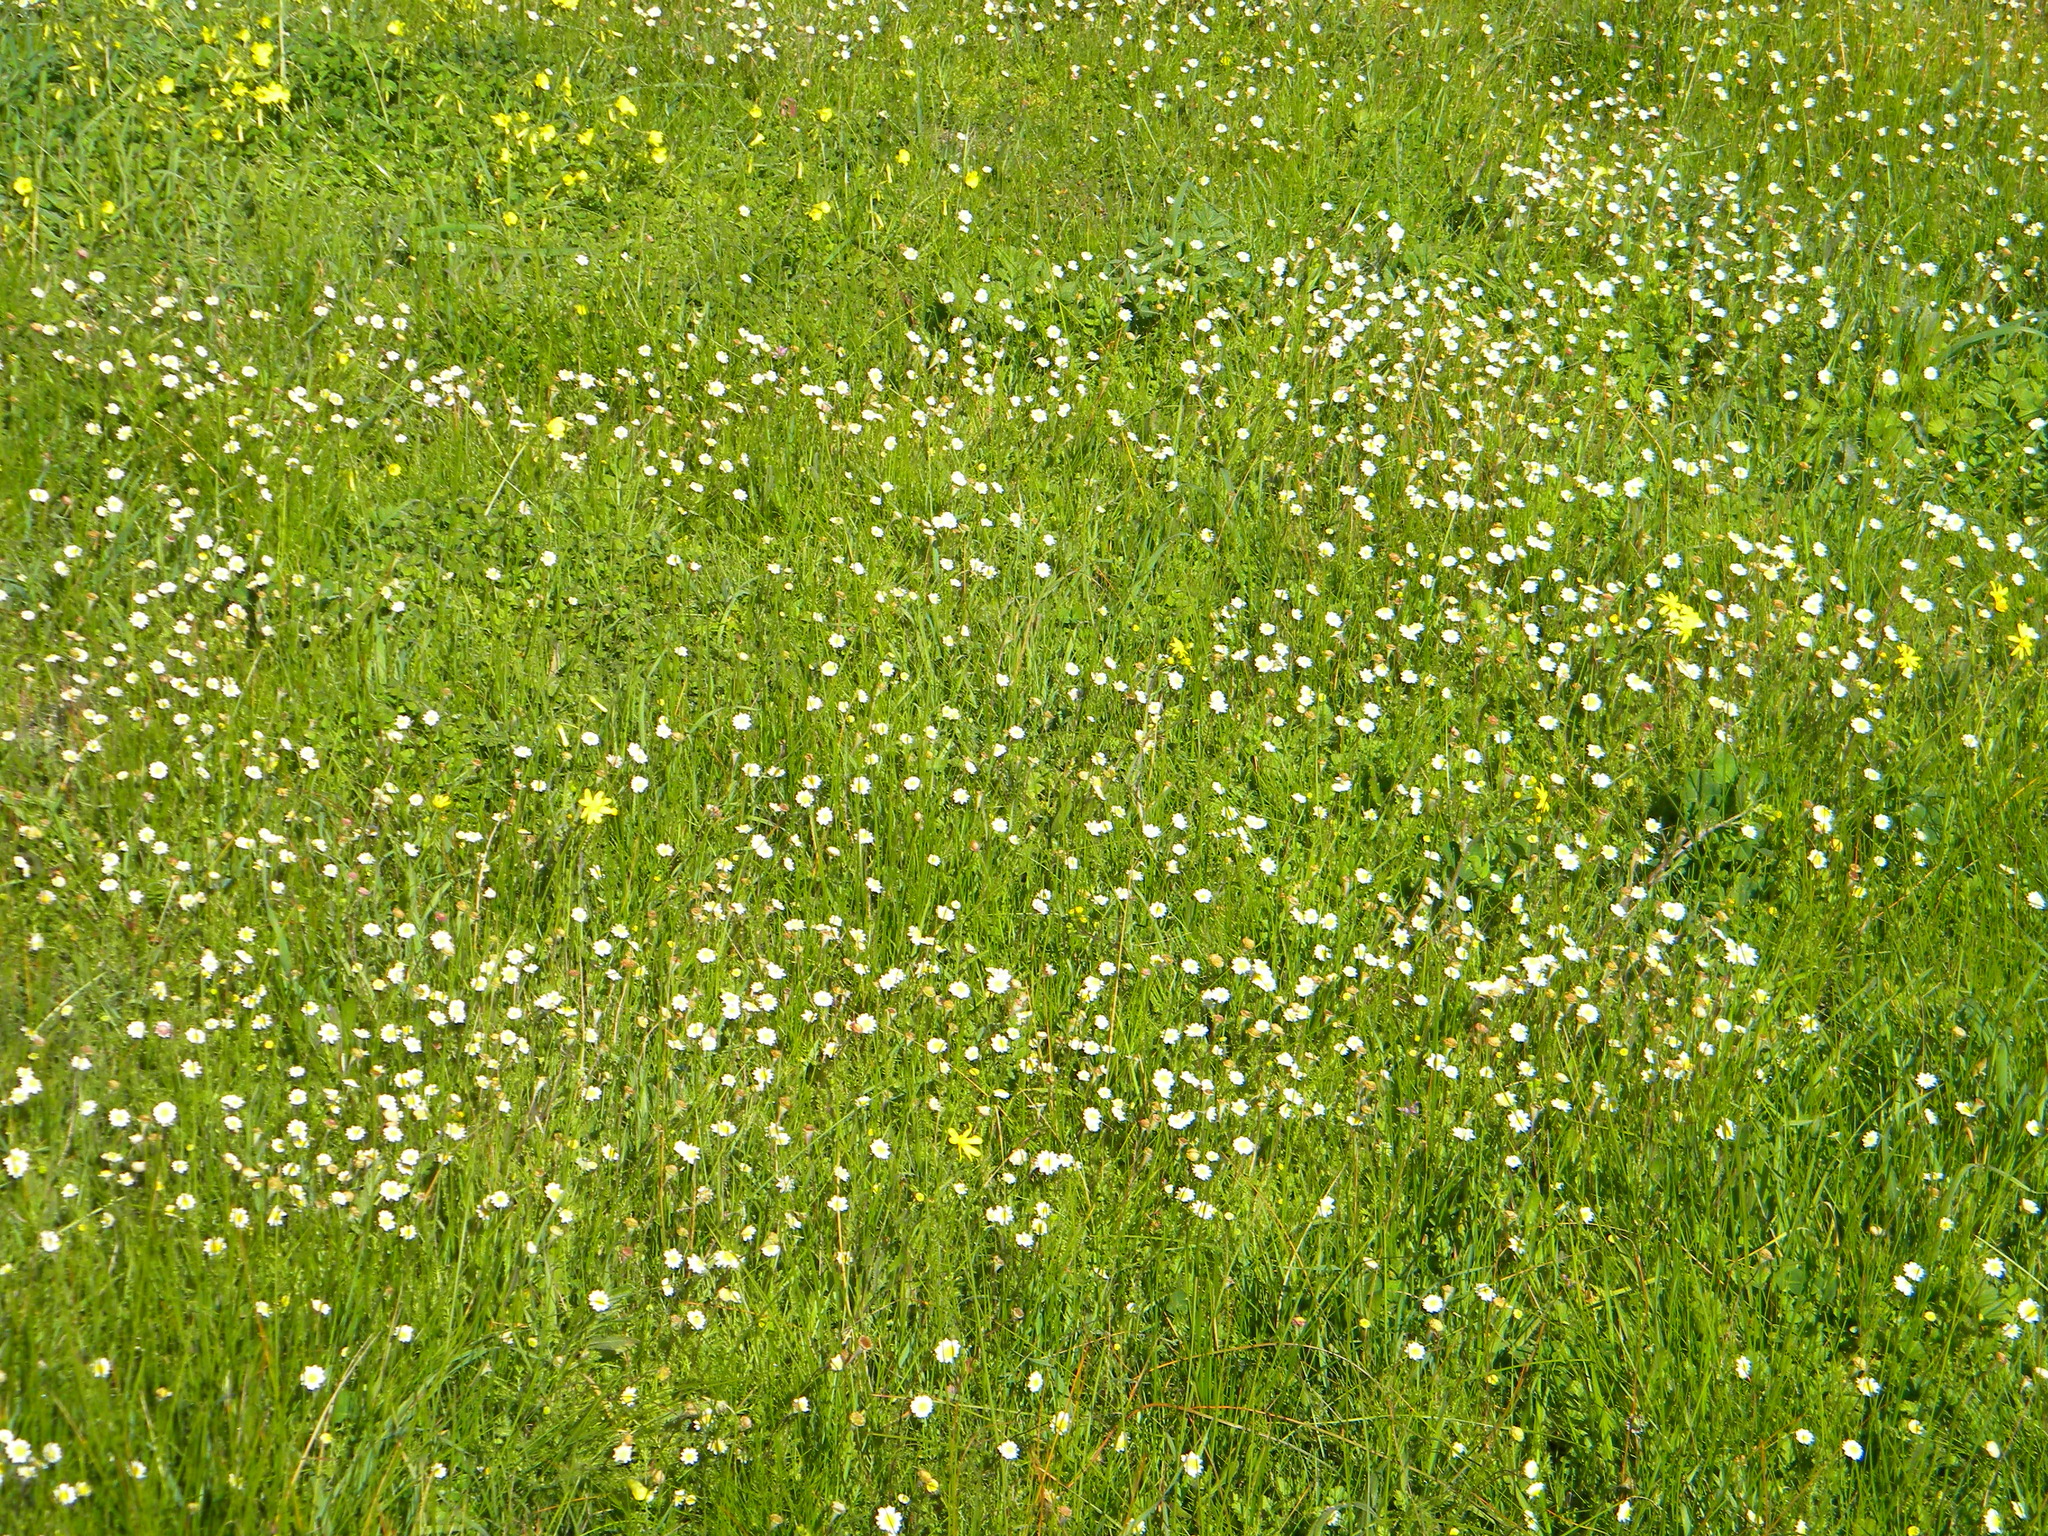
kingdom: Plantae
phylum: Tracheophyta
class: Magnoliopsida
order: Asterales
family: Asteraceae
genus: Cotula
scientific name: Cotula turbinata
